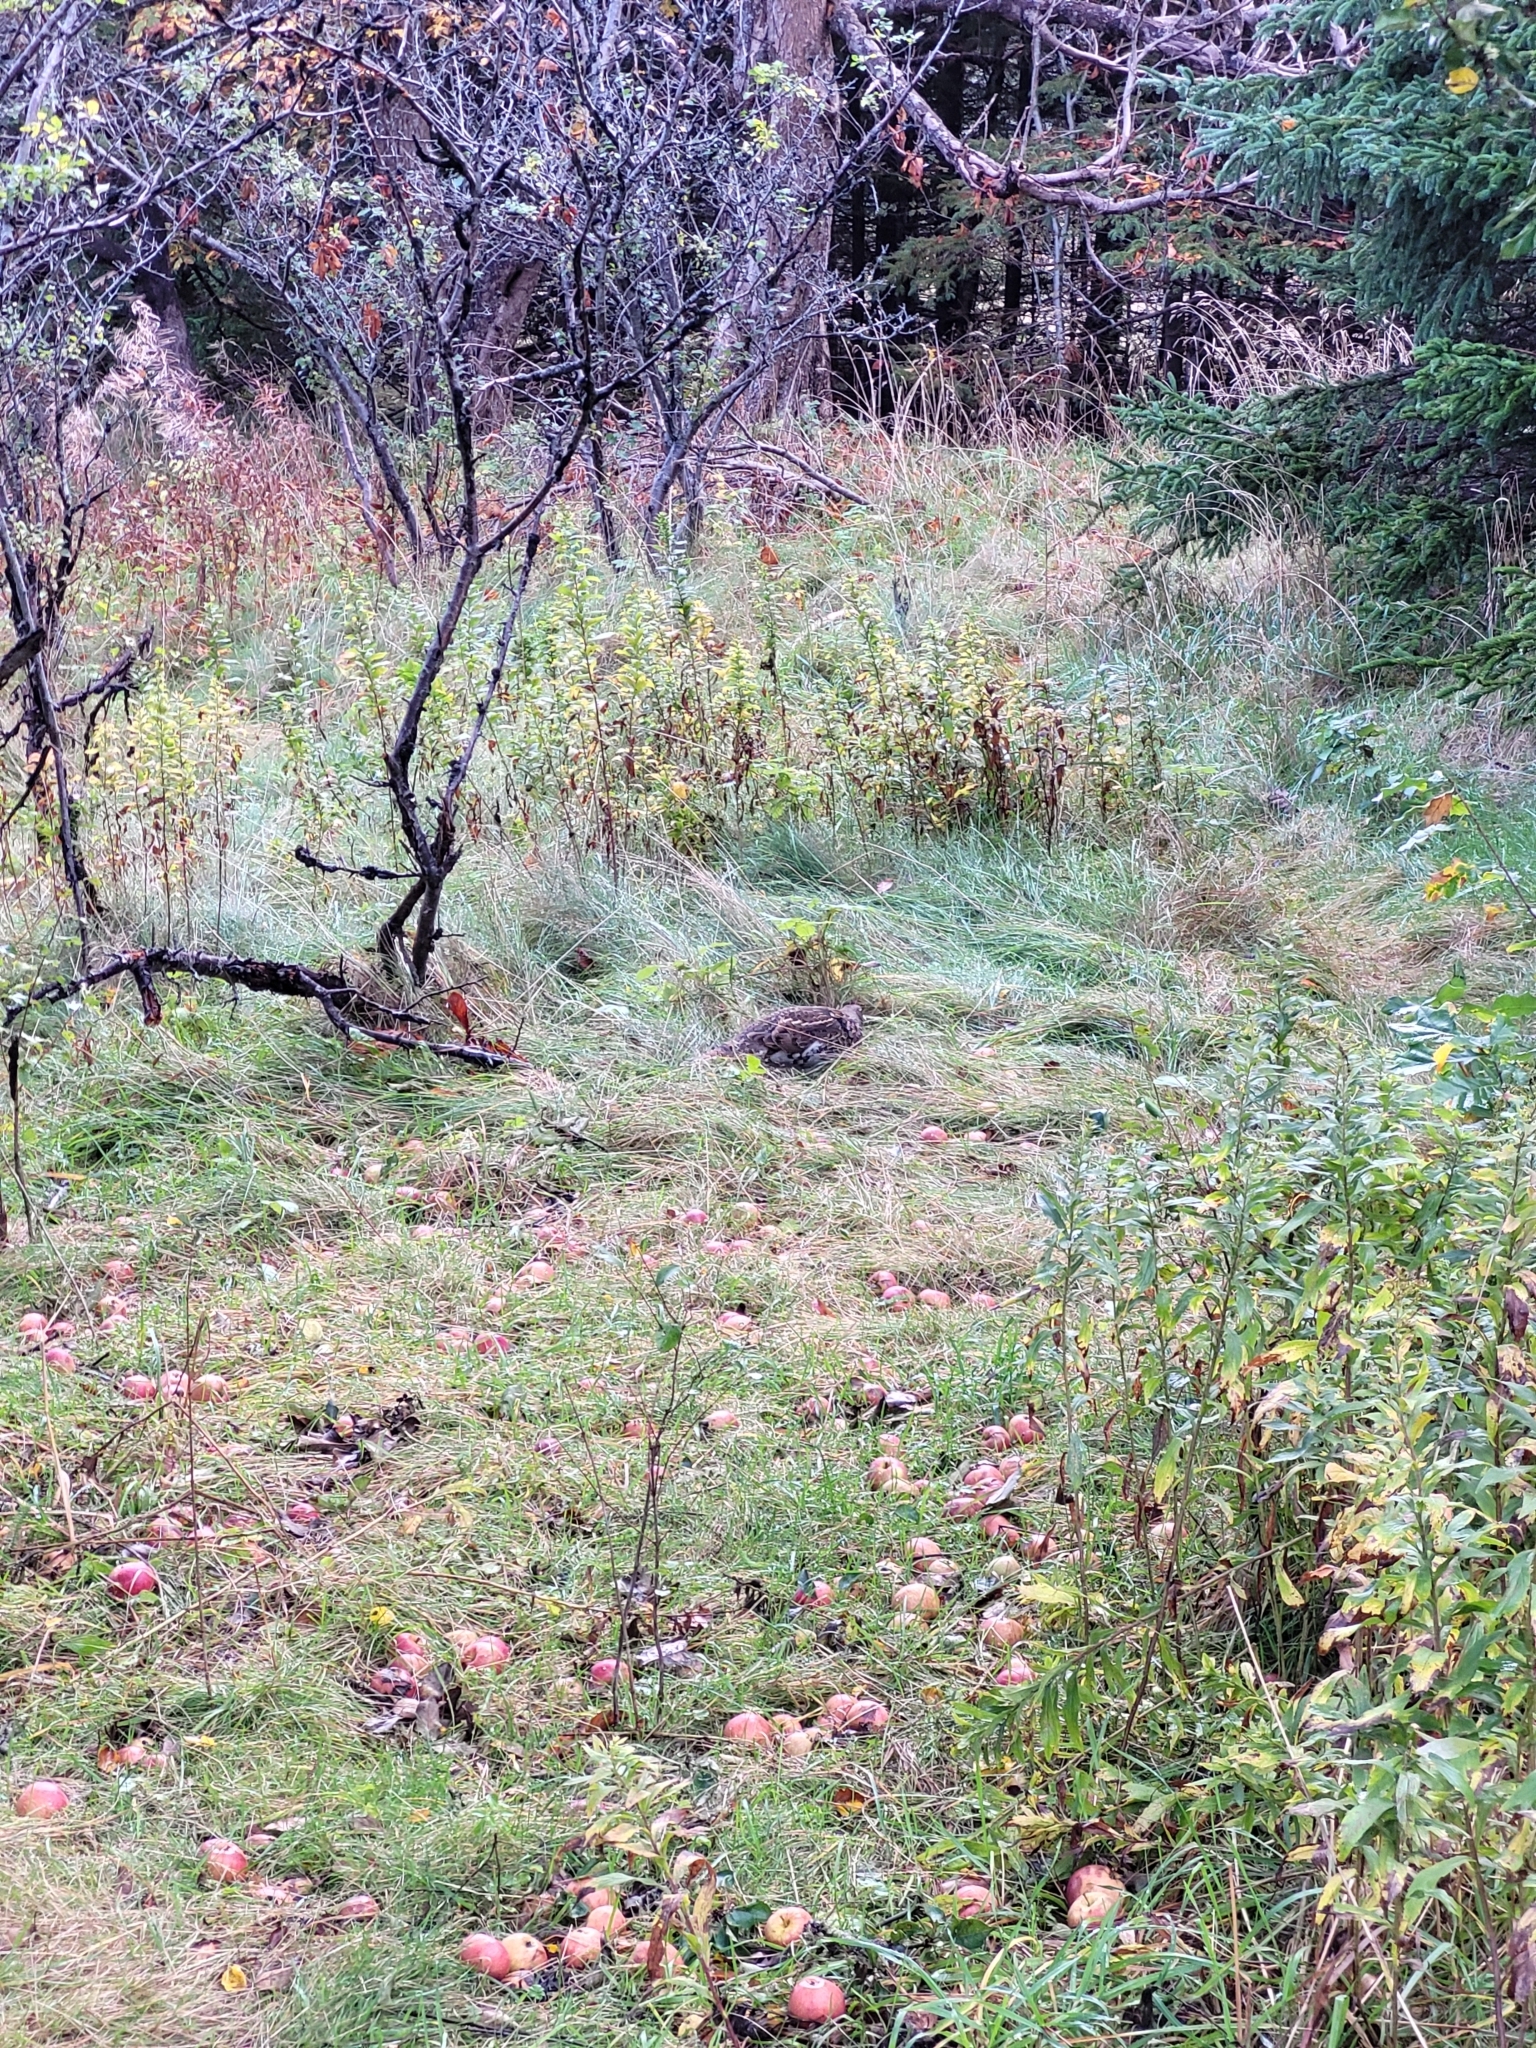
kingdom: Animalia
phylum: Chordata
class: Aves
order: Galliformes
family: Phasianidae
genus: Bonasa
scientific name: Bonasa umbellus
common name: Ruffed grouse
